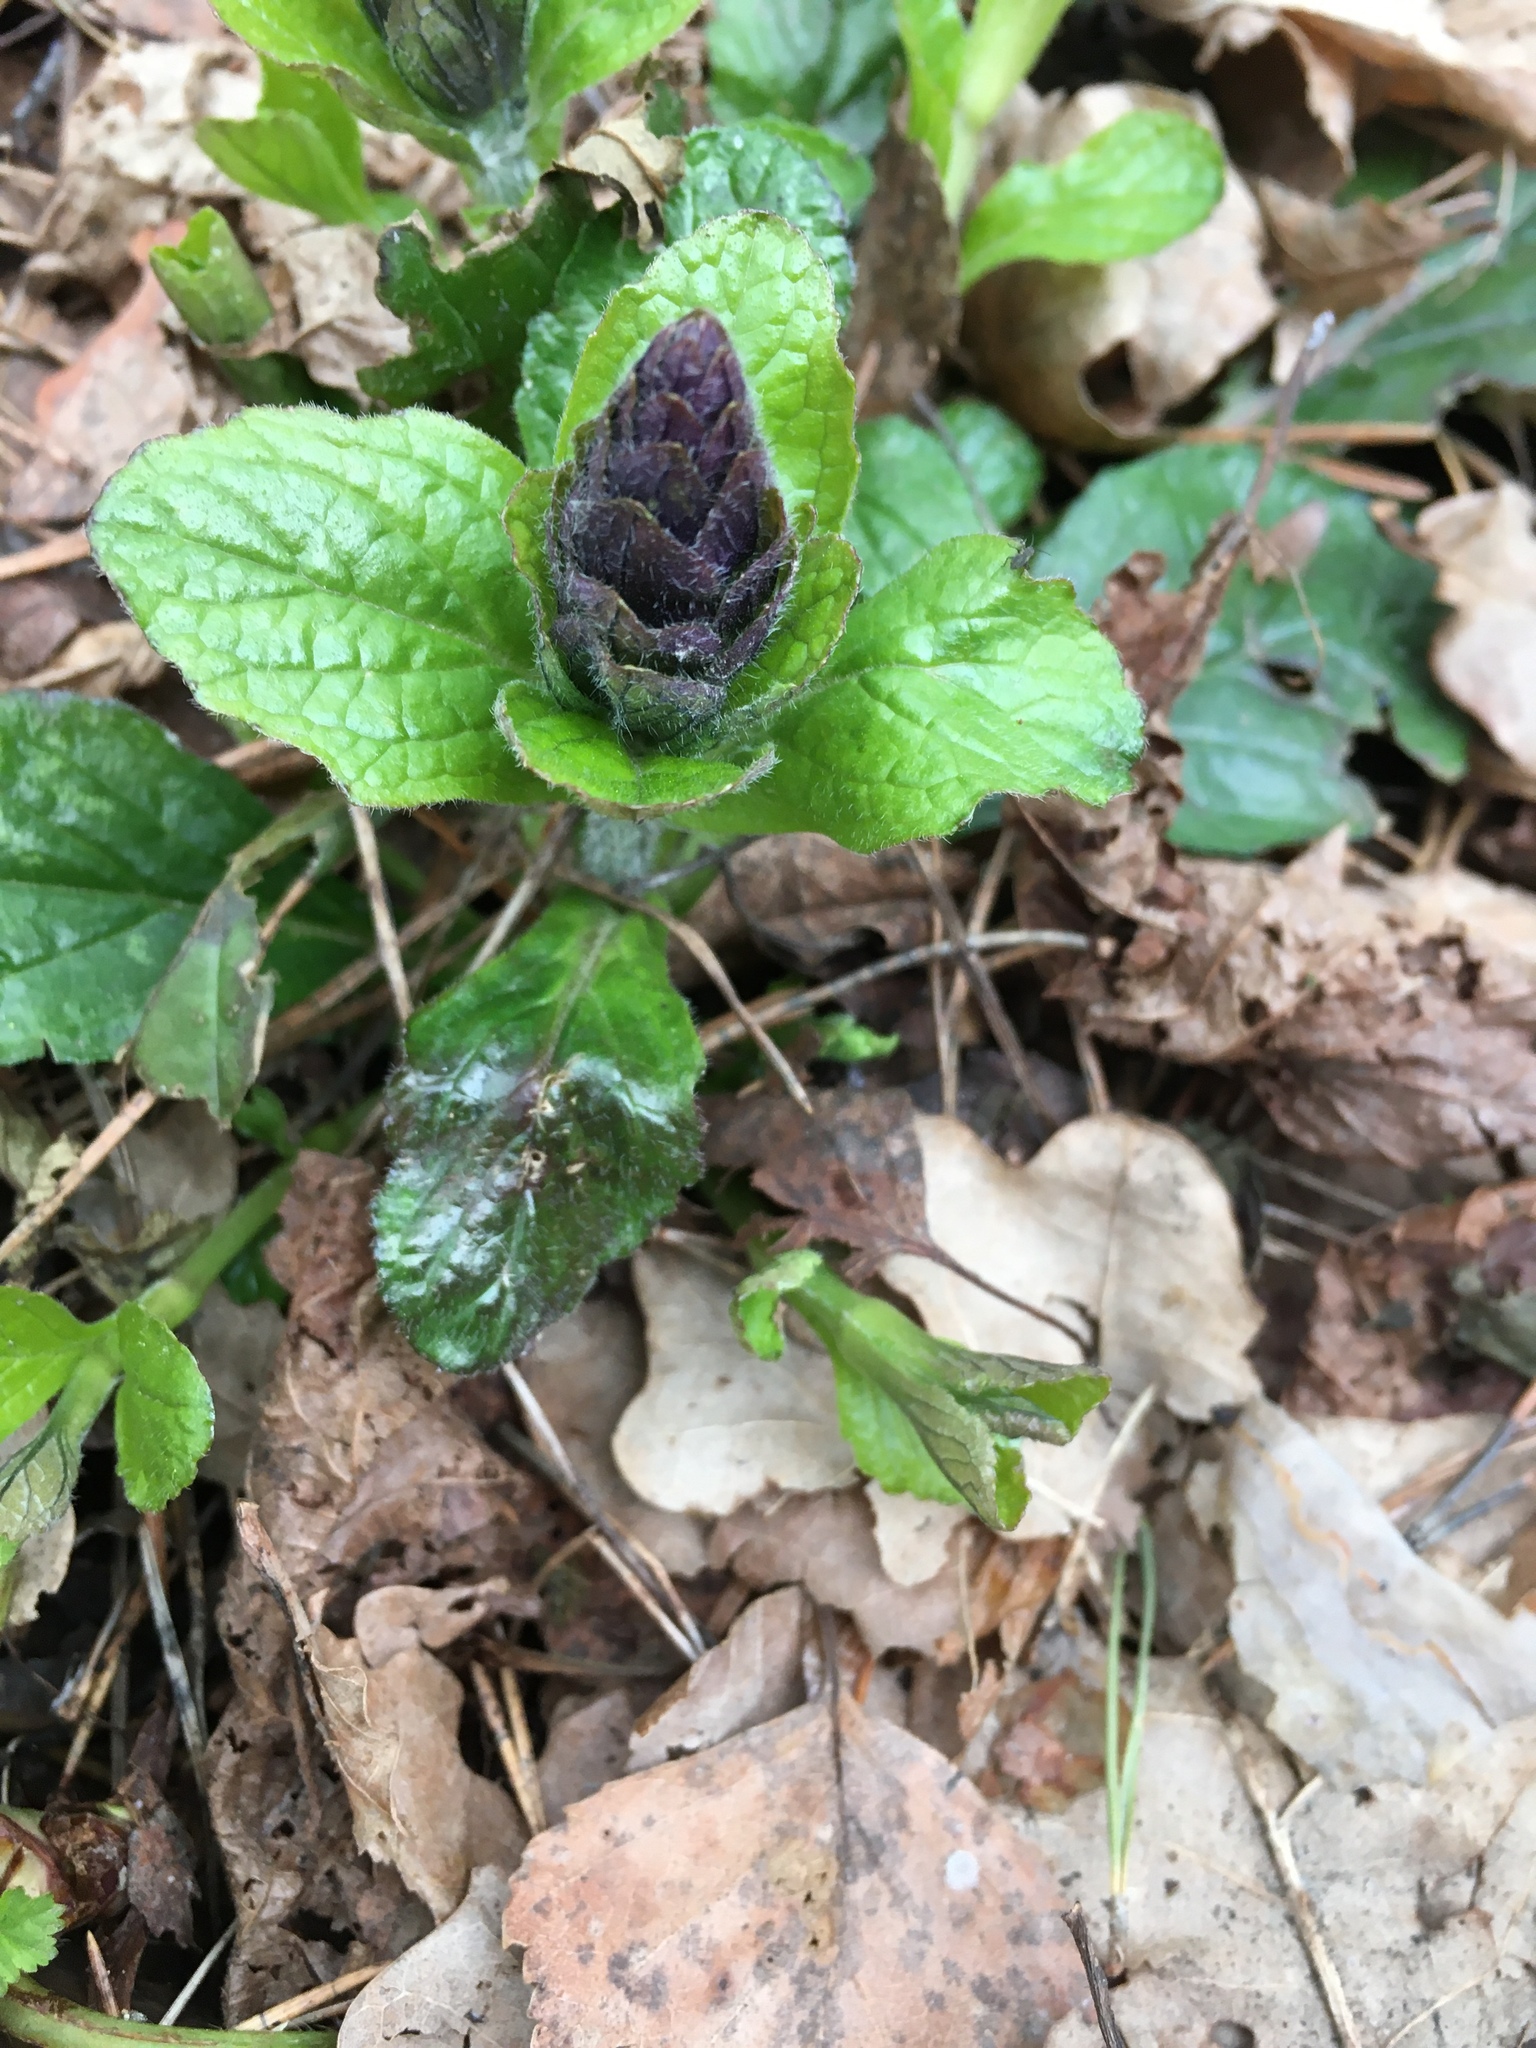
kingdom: Plantae
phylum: Tracheophyta
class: Magnoliopsida
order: Lamiales
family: Lamiaceae
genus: Ajuga
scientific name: Ajuga reptans
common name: Bugle
